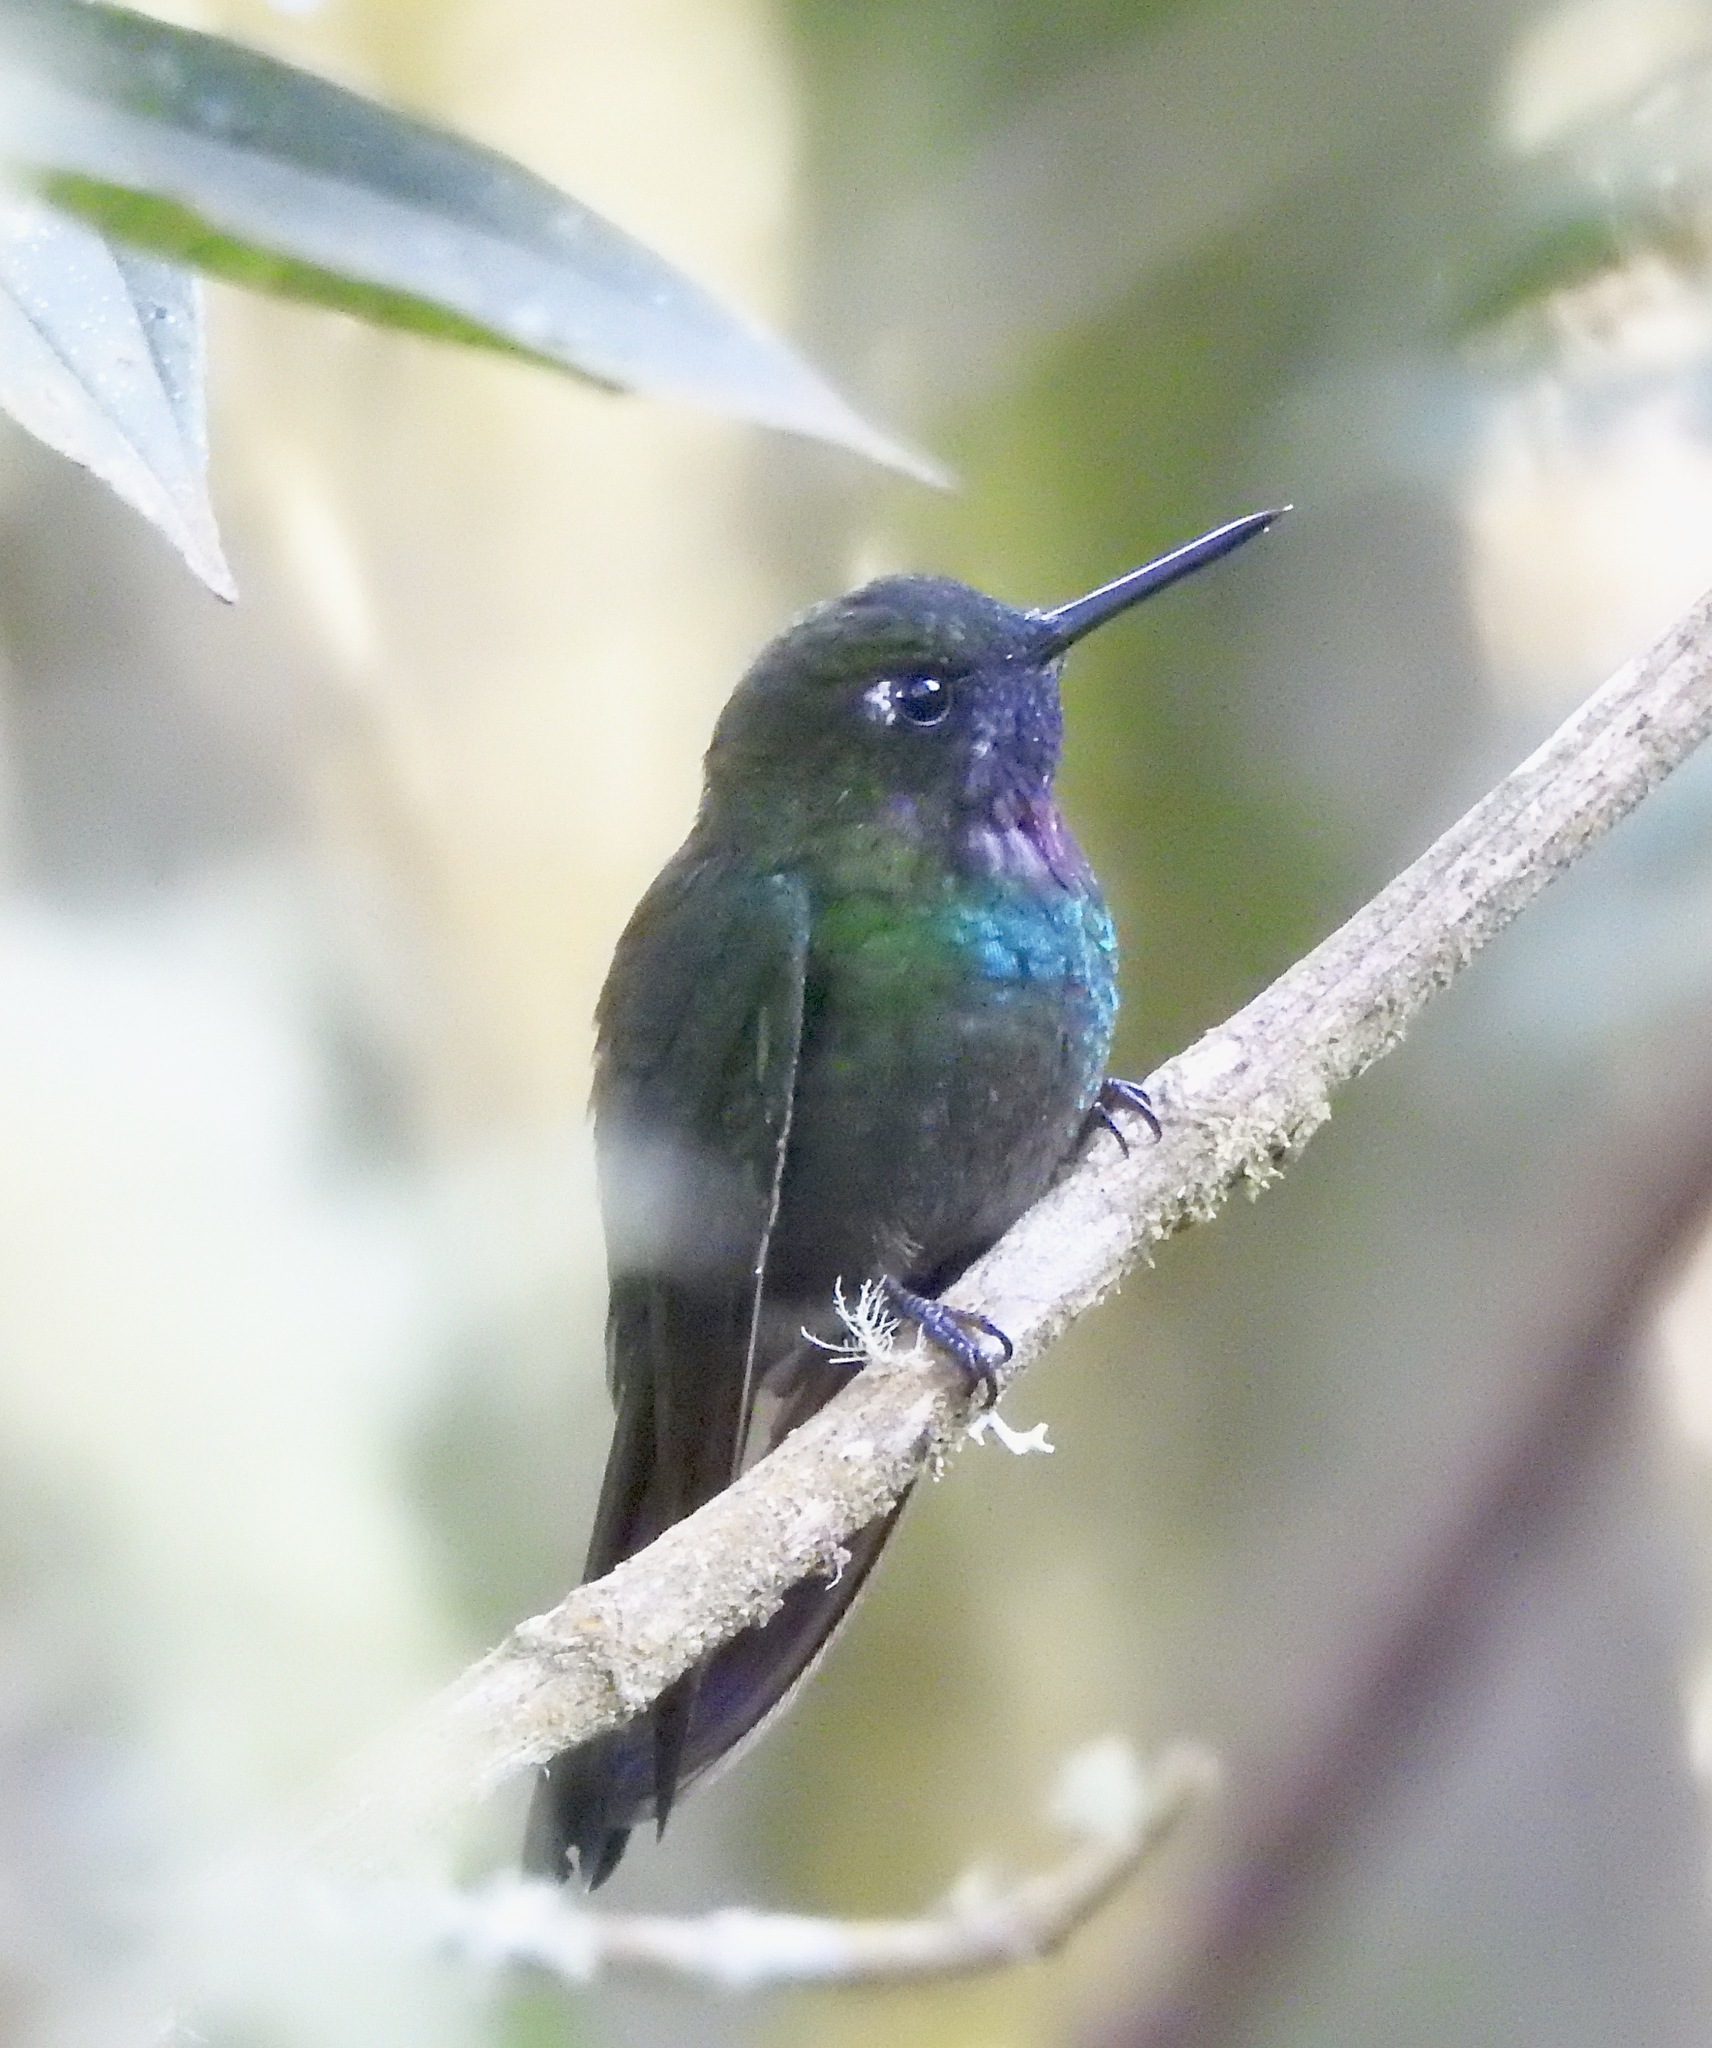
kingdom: Animalia
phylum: Chordata
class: Aves
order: Apodiformes
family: Trochilidae
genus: Heliangelus
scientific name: Heliangelus exortis
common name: Tourmaline sunangel
